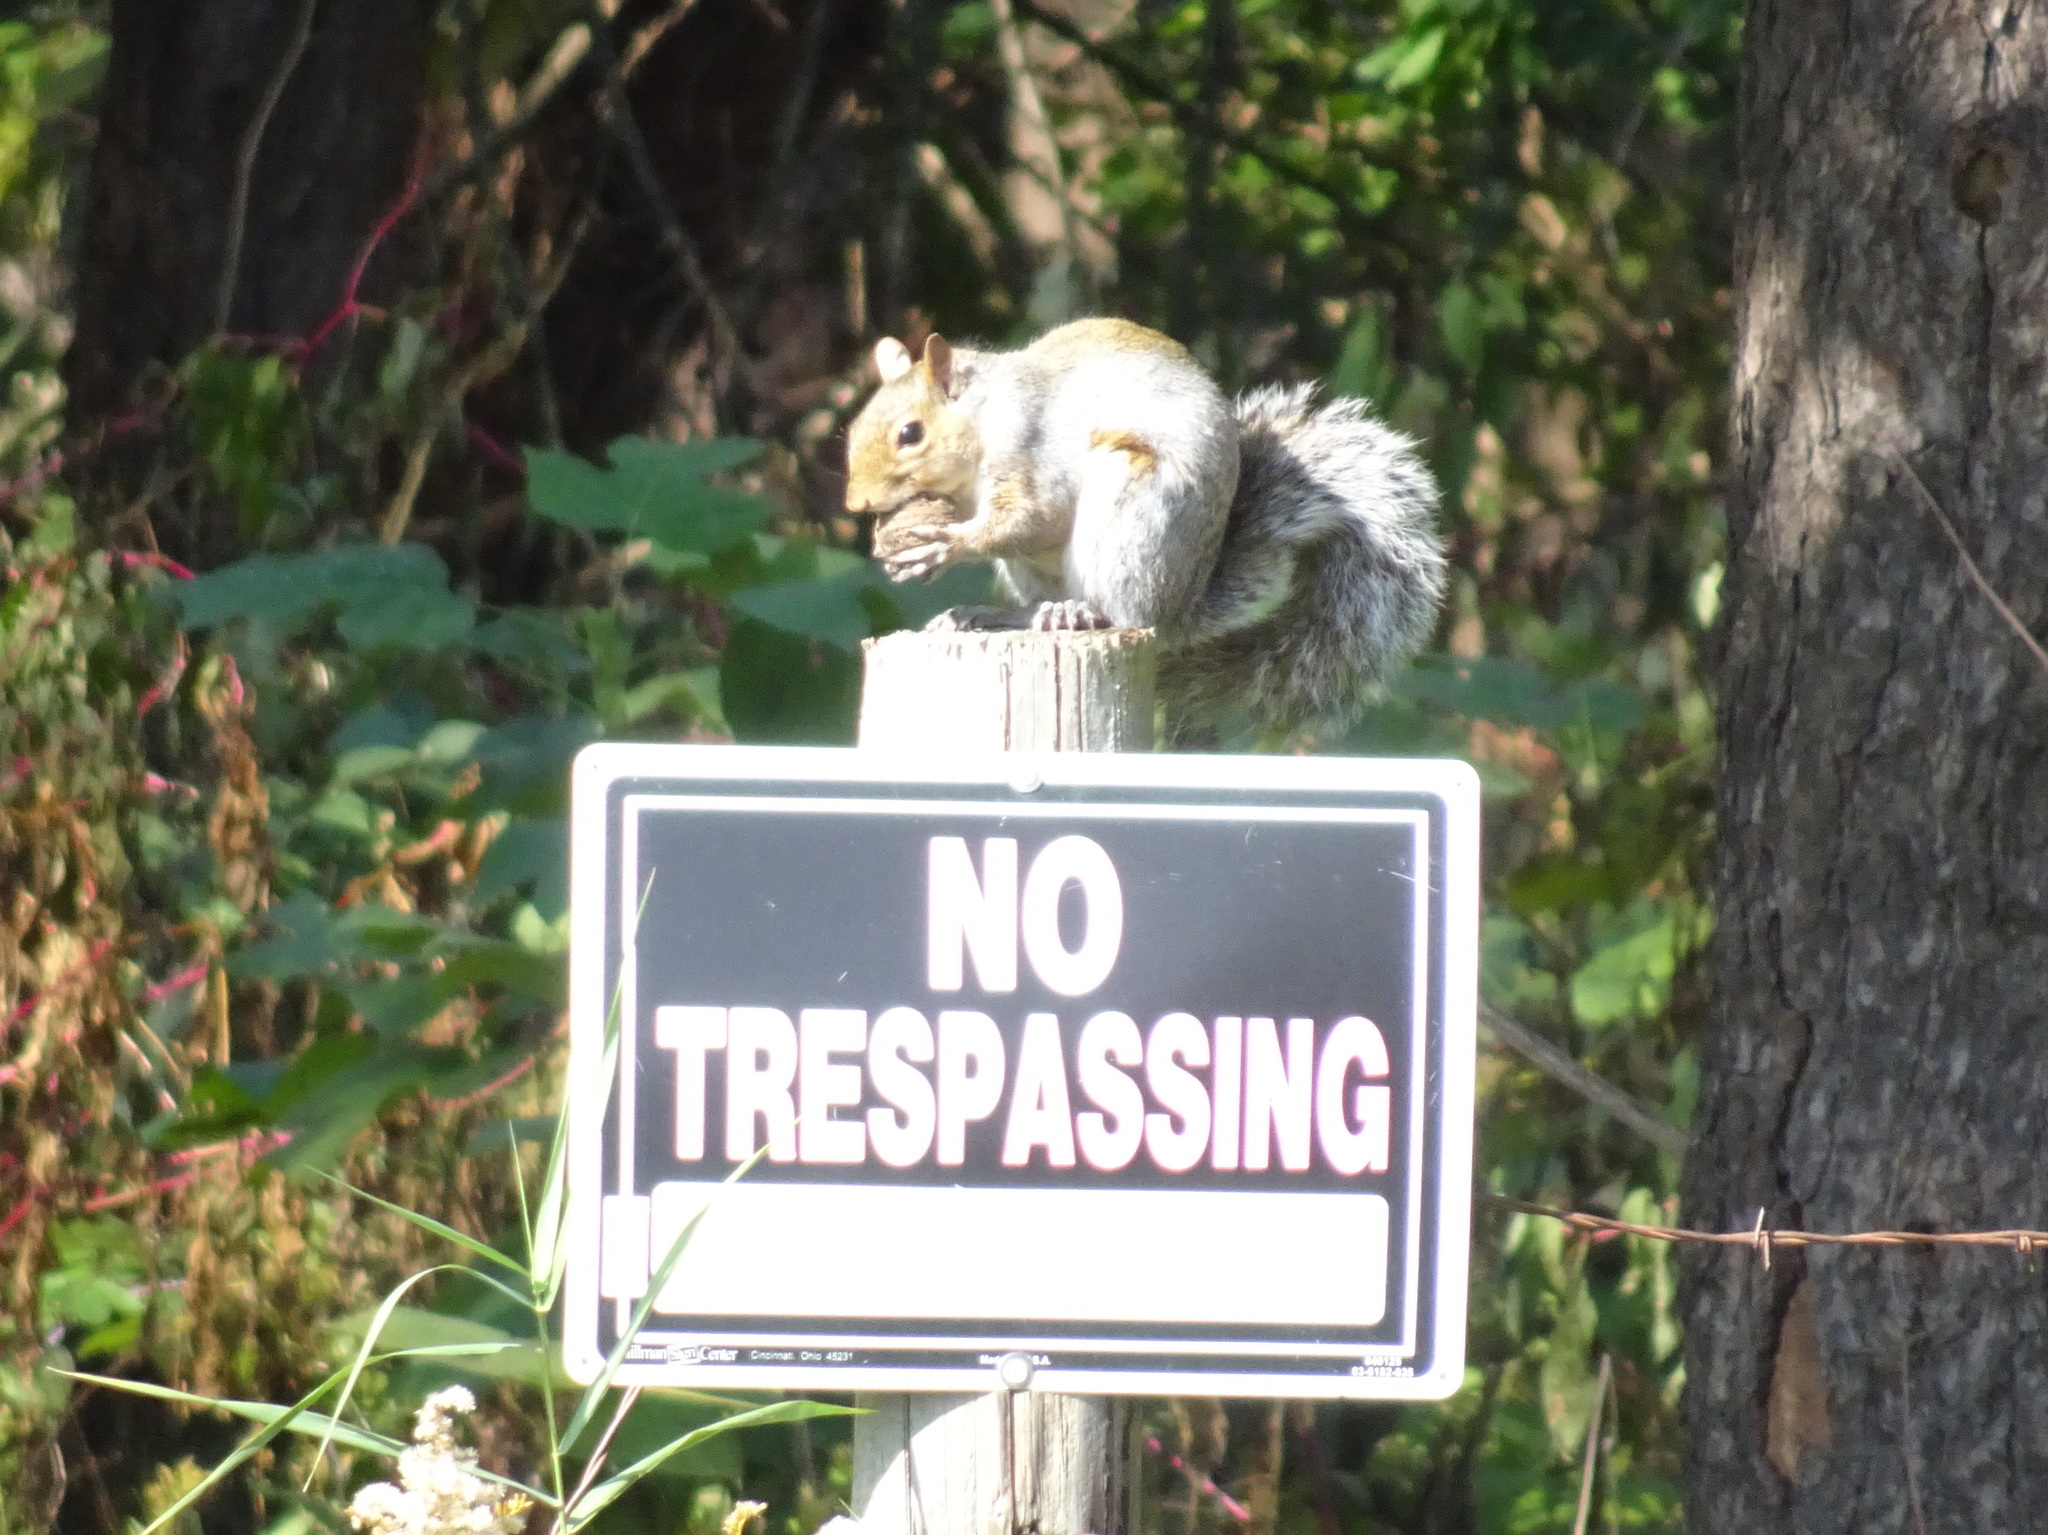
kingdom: Animalia
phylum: Chordata
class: Mammalia
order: Rodentia
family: Sciuridae
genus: Sciurus
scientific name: Sciurus carolinensis
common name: Eastern gray squirrel
